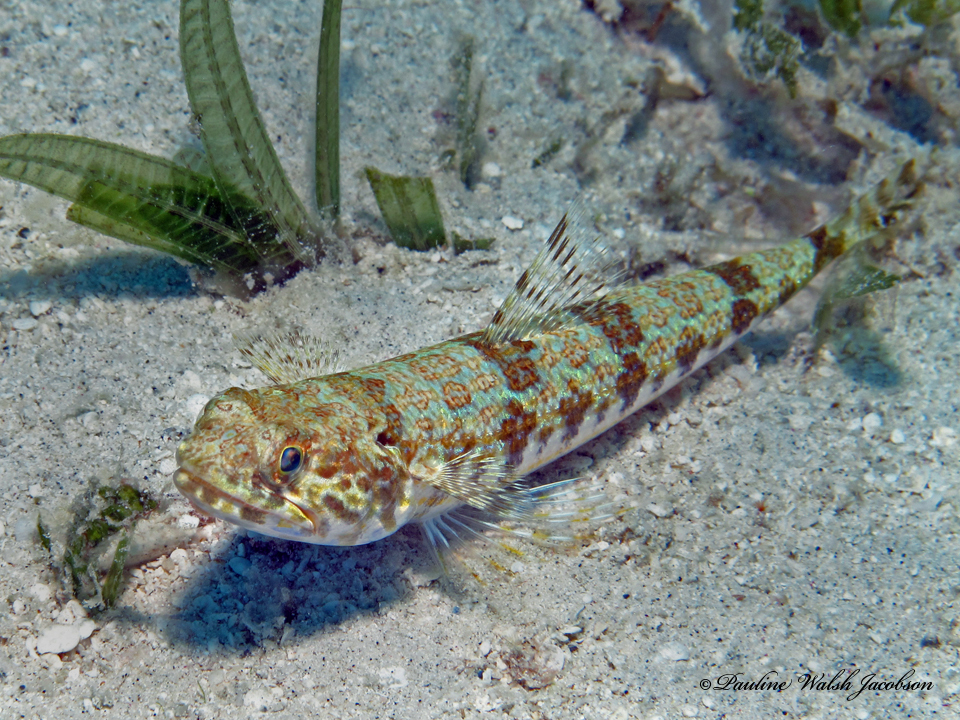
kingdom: Animalia
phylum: Chordata
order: Aulopiformes
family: Synodontidae
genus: Synodus
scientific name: Synodus intermedius
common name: Sand diver
